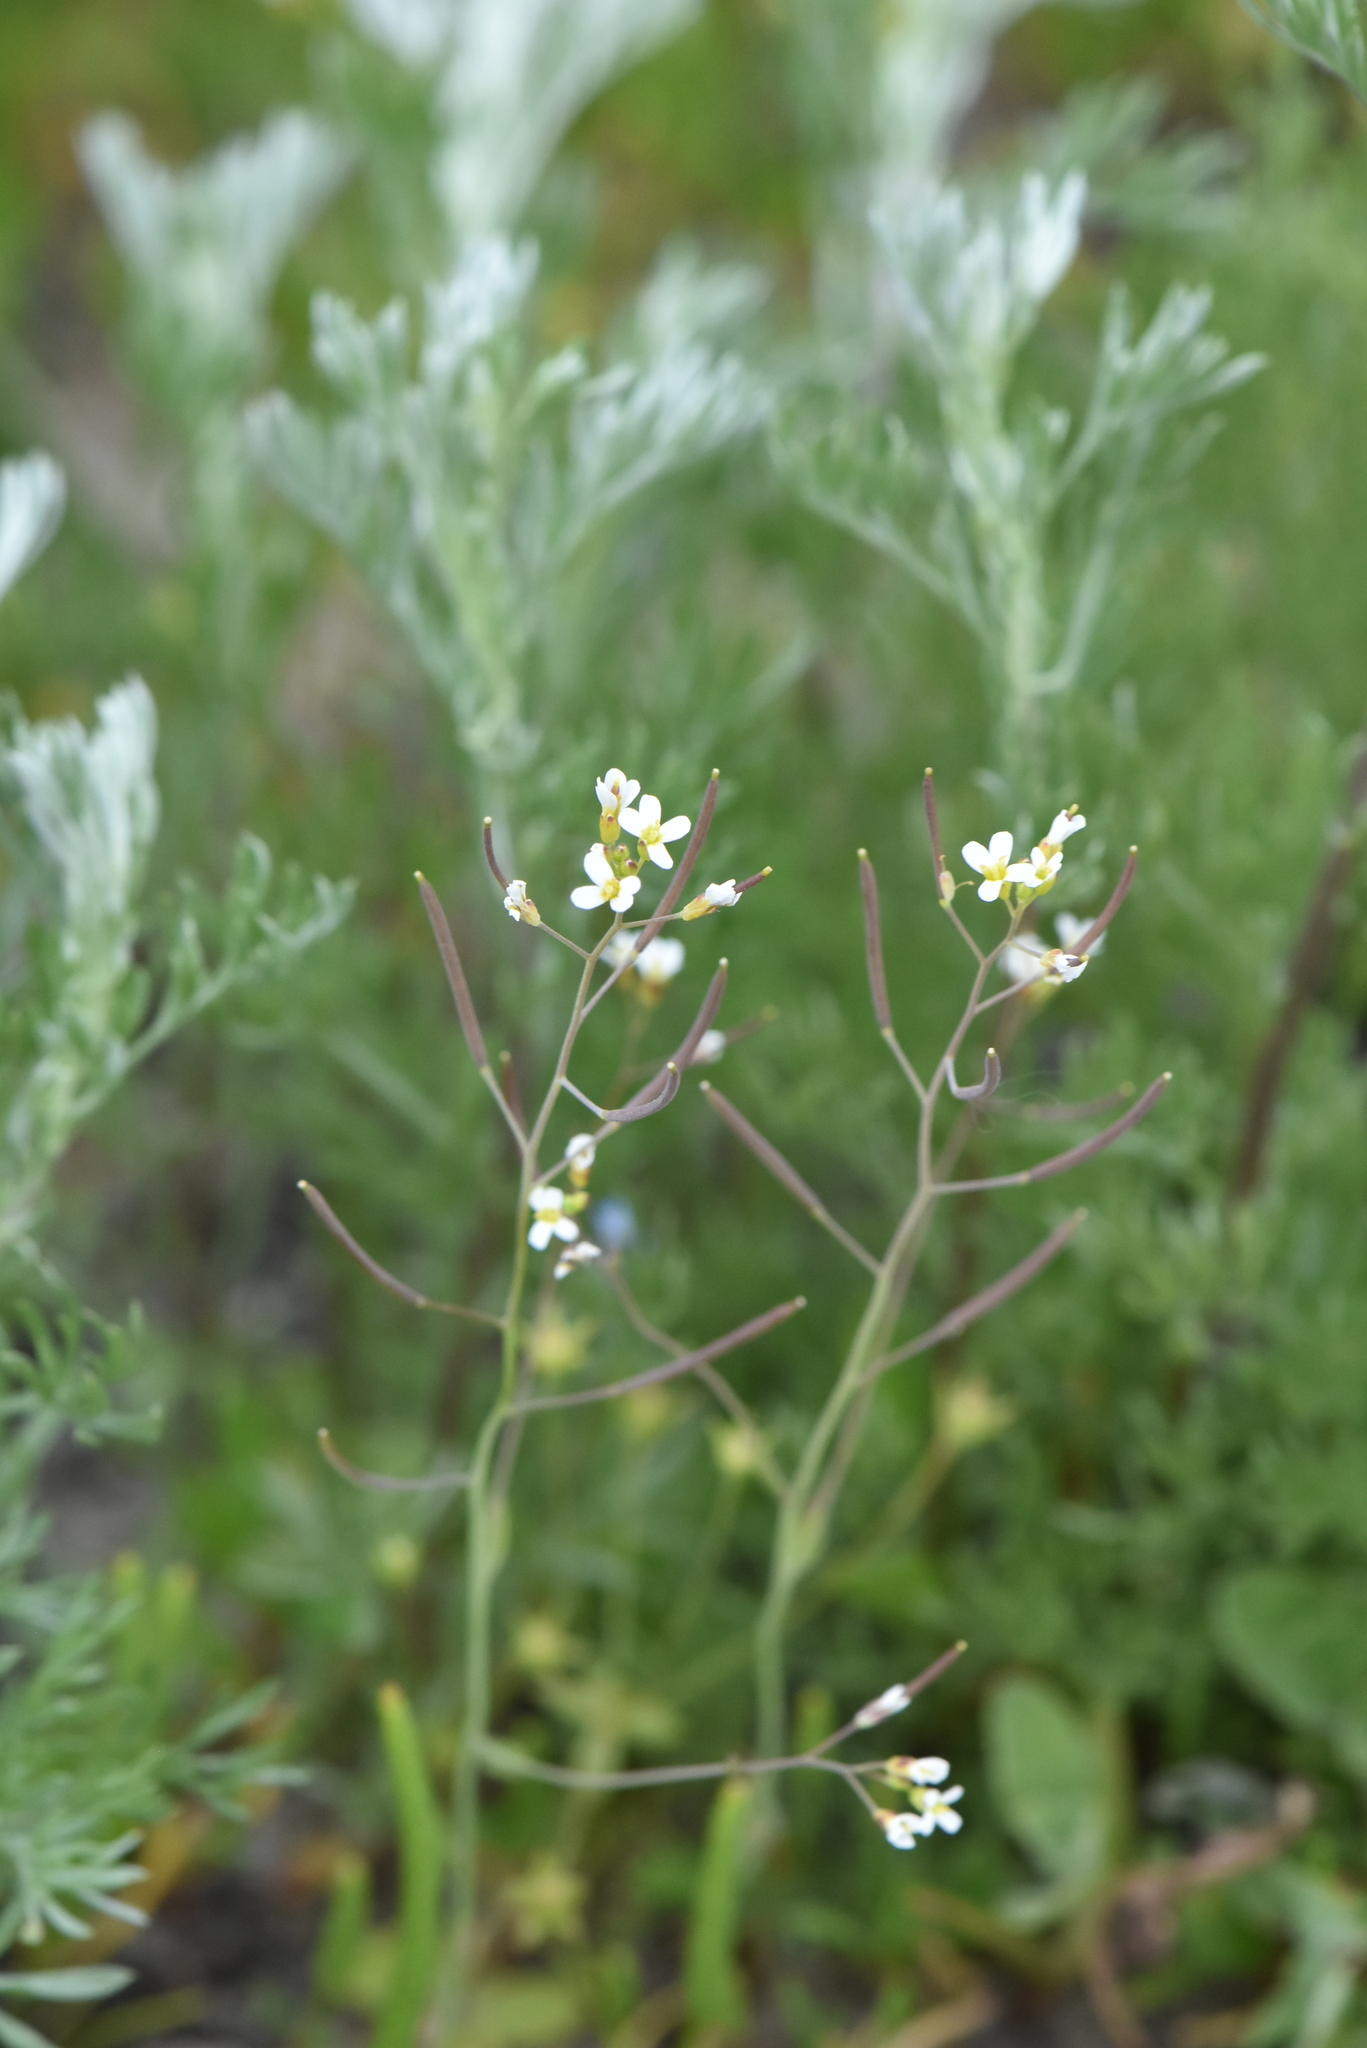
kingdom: Plantae
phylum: Tracheophyta
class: Magnoliopsida
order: Brassicales
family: Brassicaceae
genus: Arabidopsis
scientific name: Arabidopsis thaliana
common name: Thale cress
